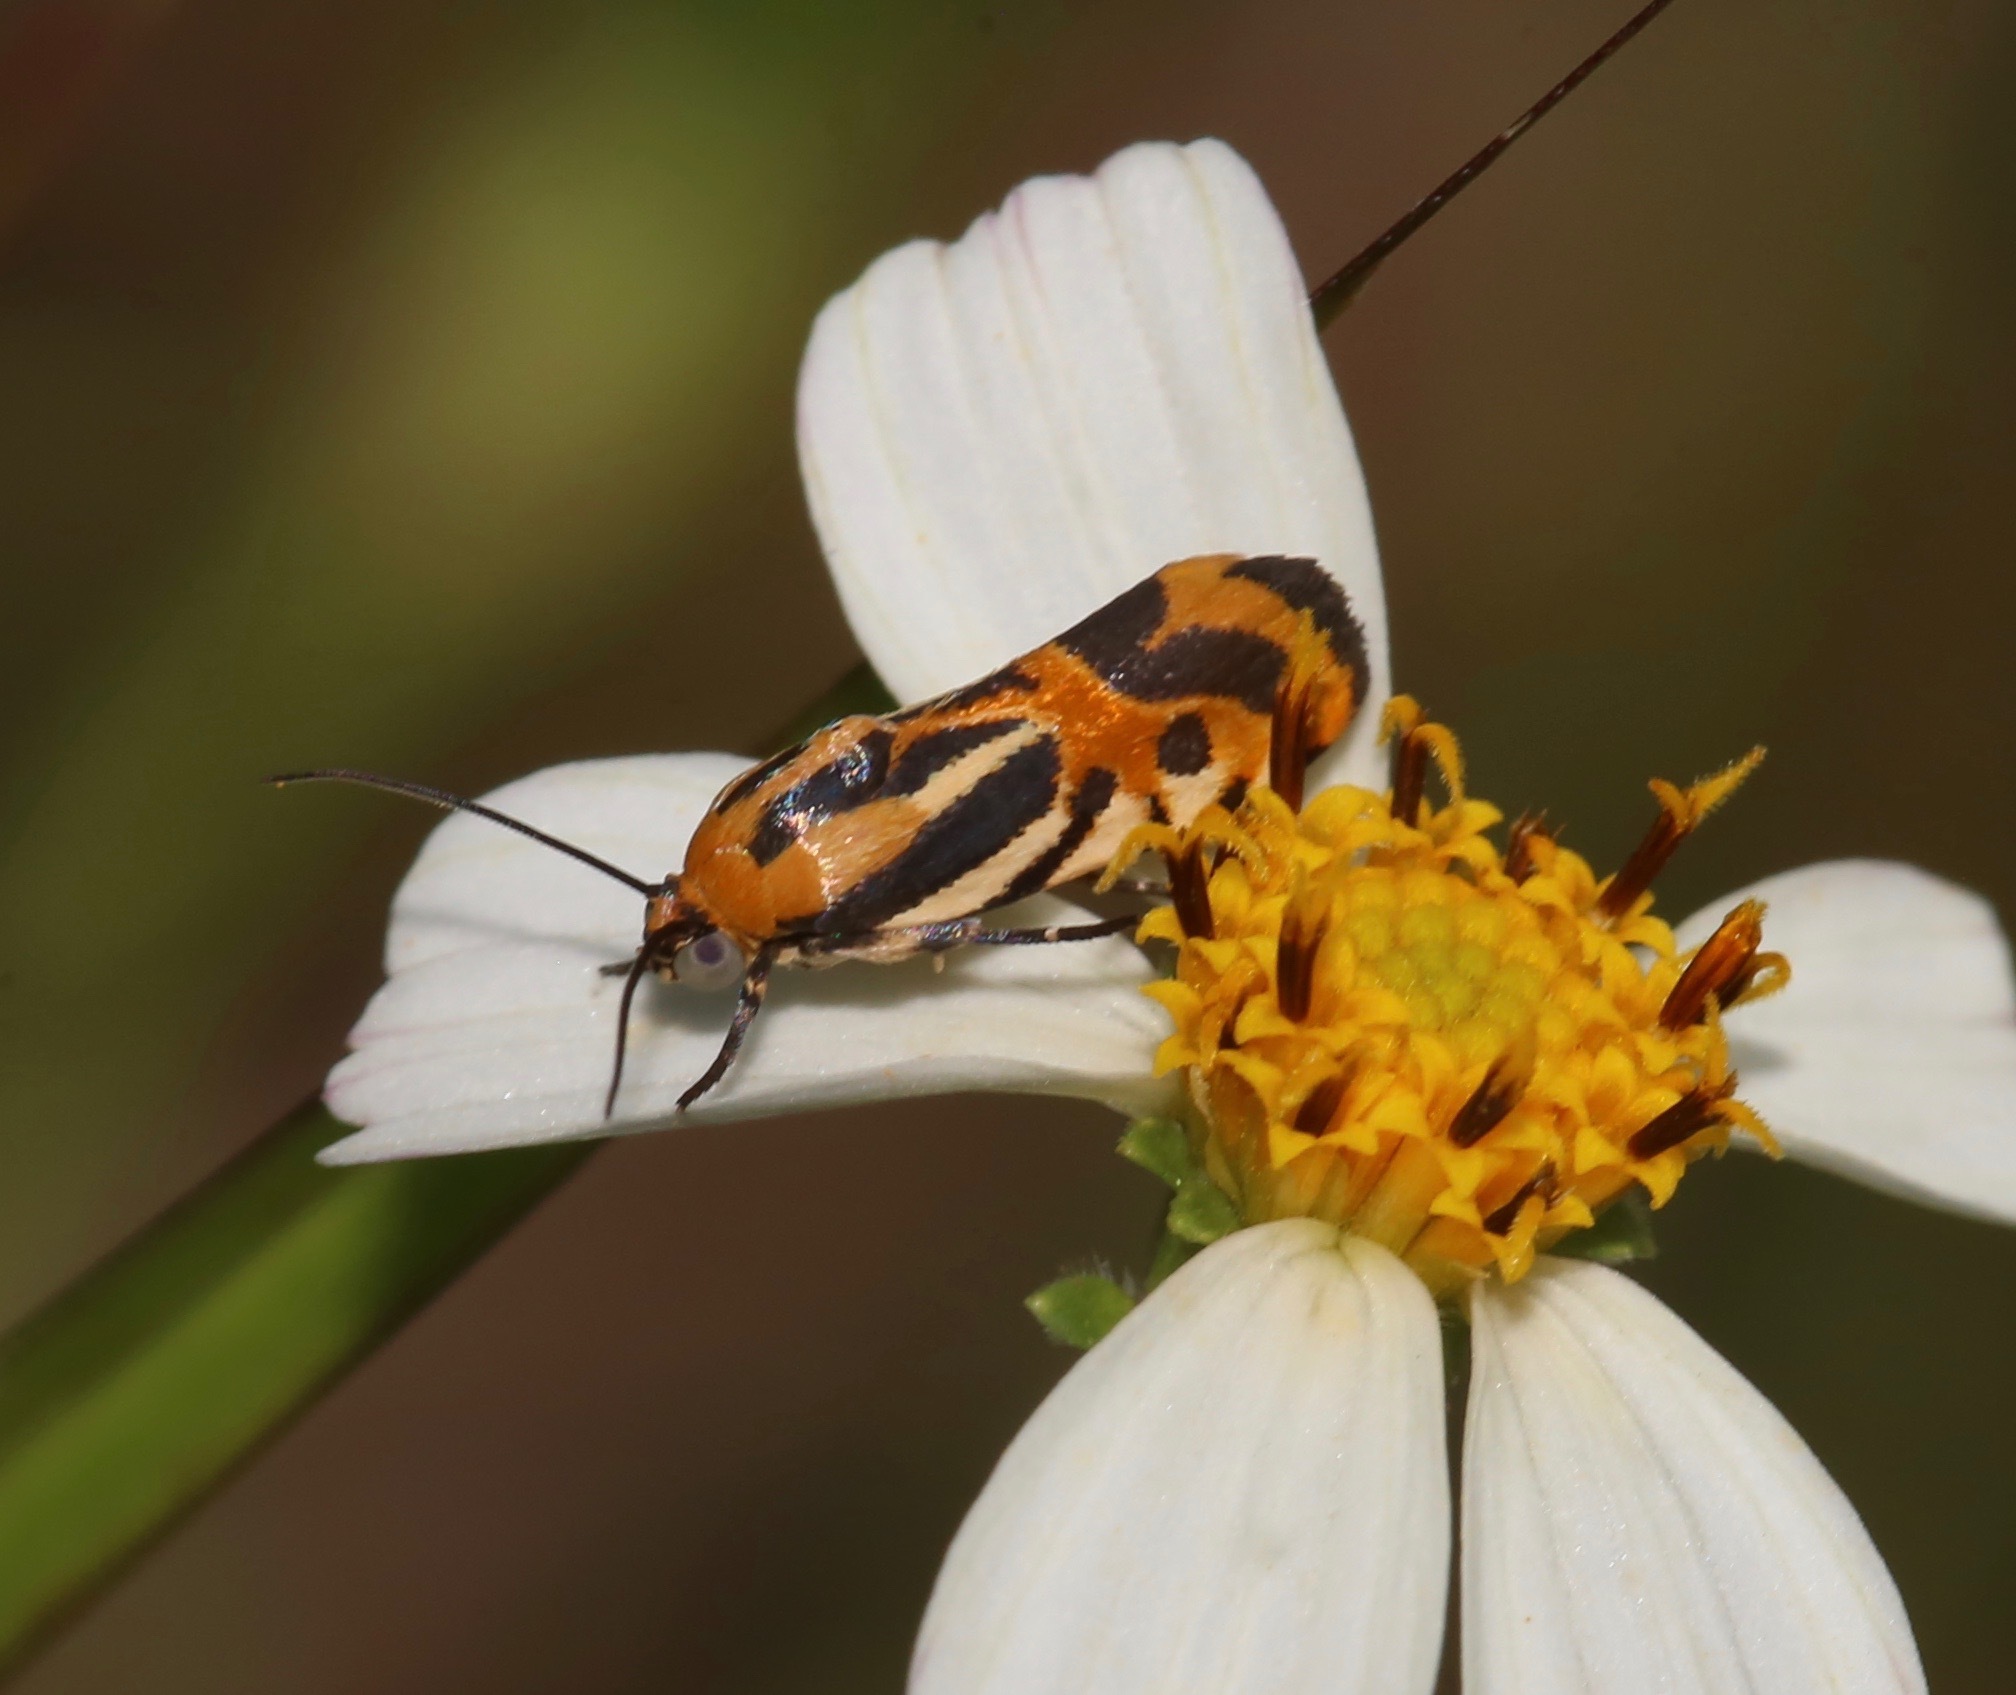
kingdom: Animalia
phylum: Arthropoda
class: Insecta
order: Lepidoptera
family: Noctuidae
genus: Acontia
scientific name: Acontia onagrus
